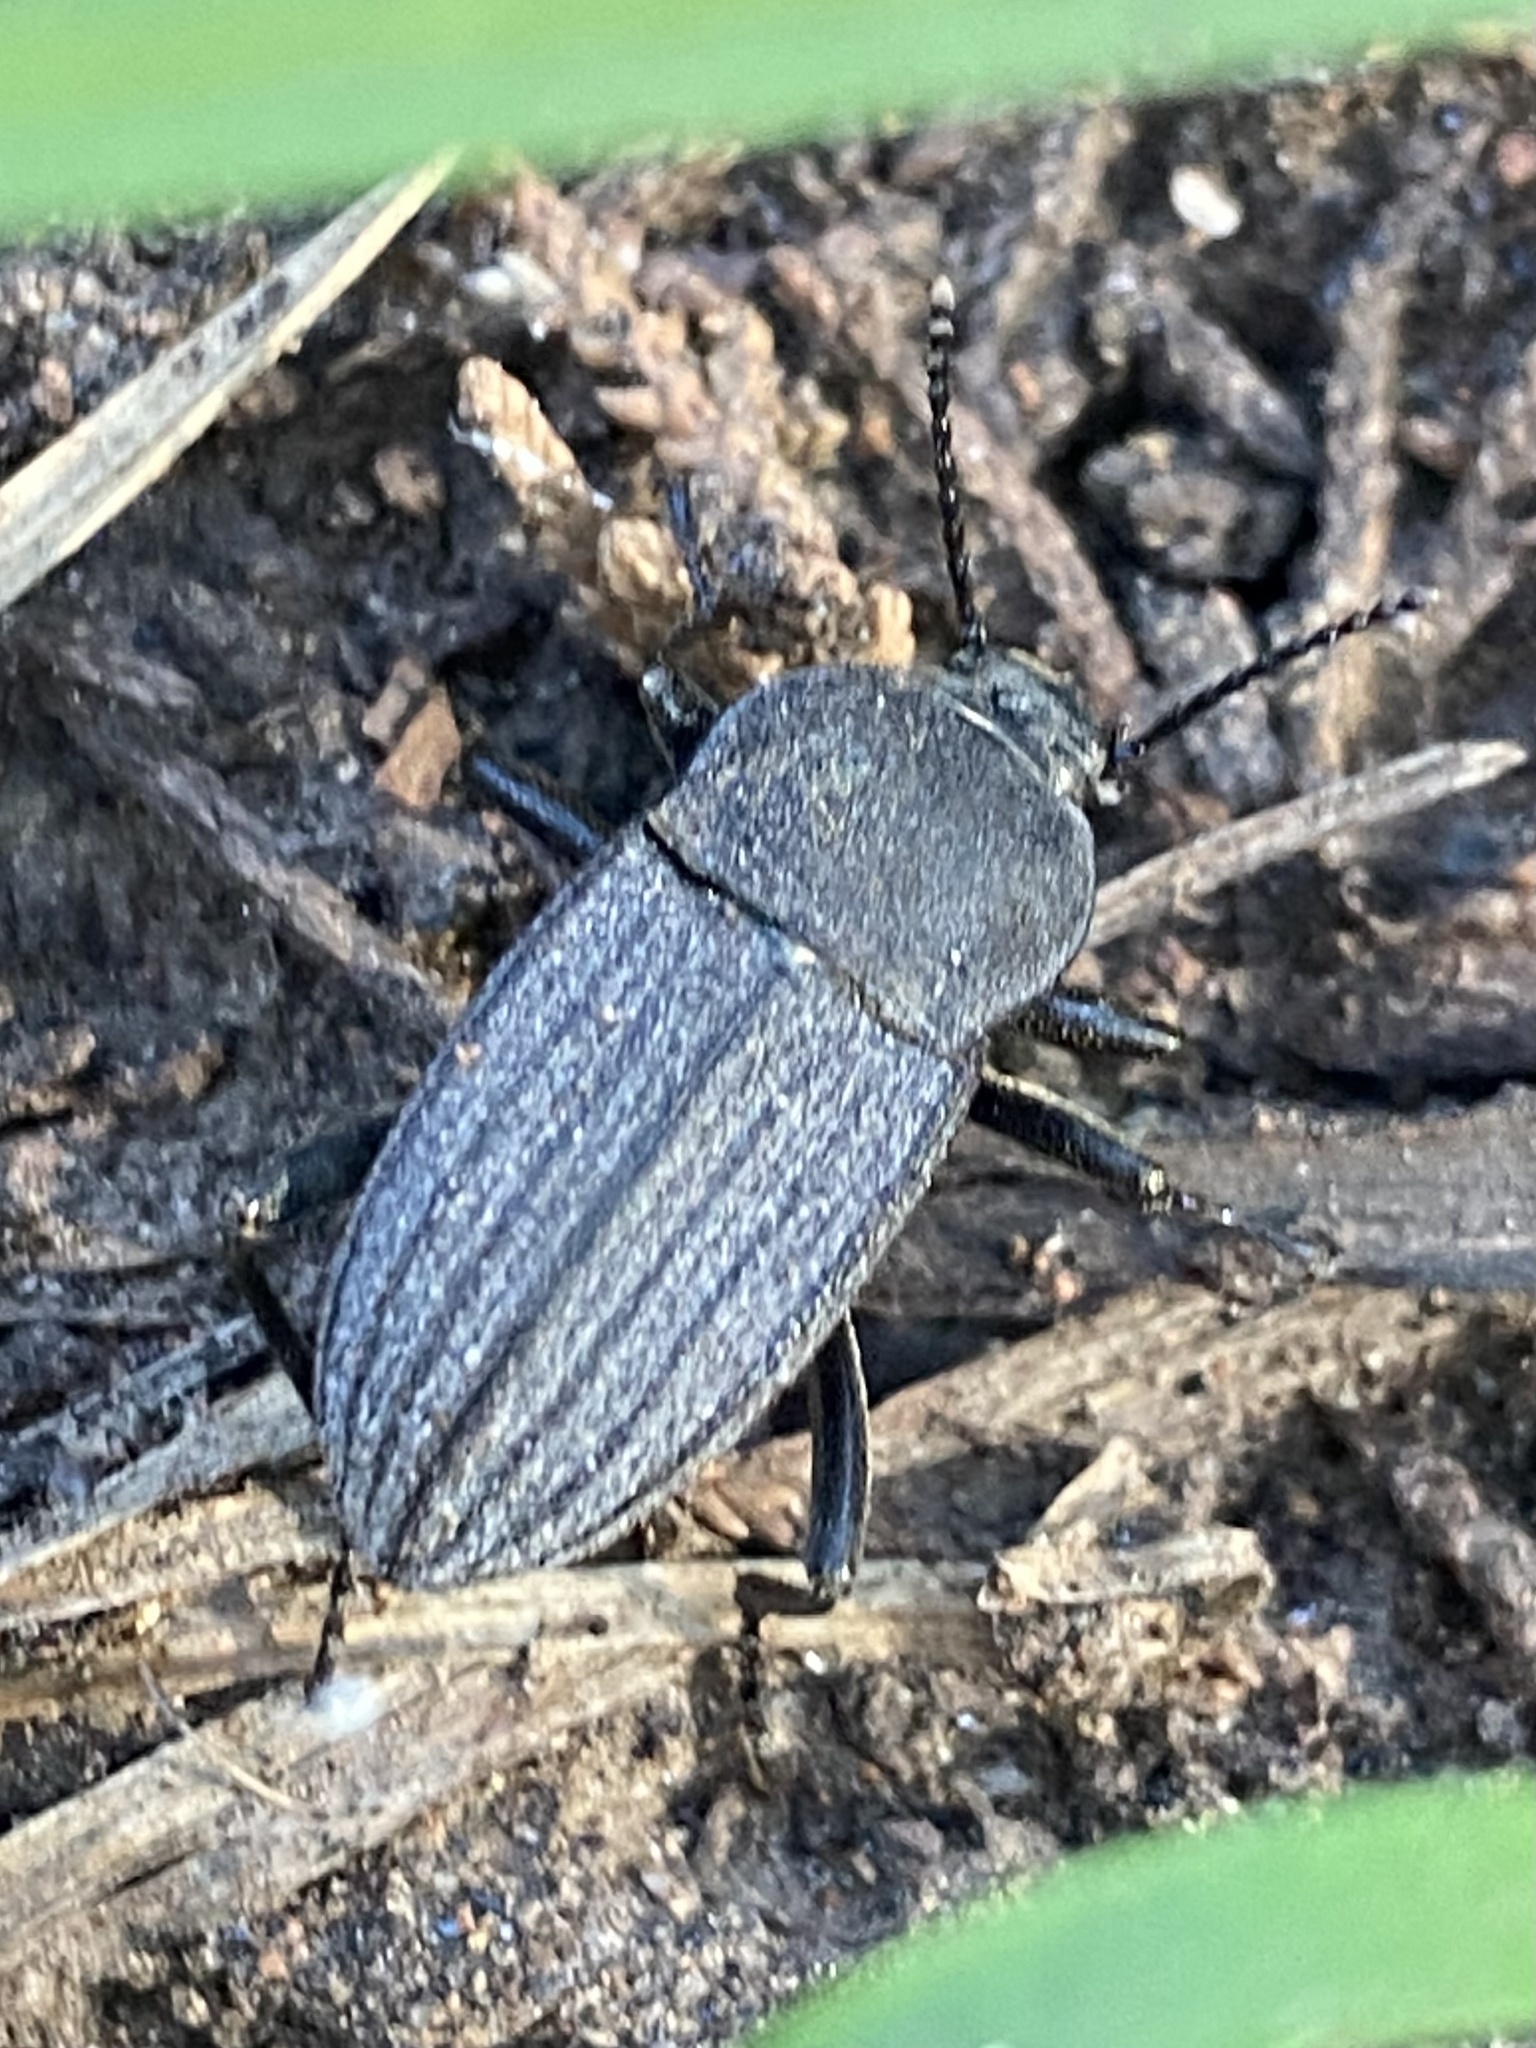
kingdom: Animalia
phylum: Arthropoda
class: Insecta
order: Coleoptera
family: Tenebrionidae
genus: Eleodes
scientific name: Eleodes tricostata
